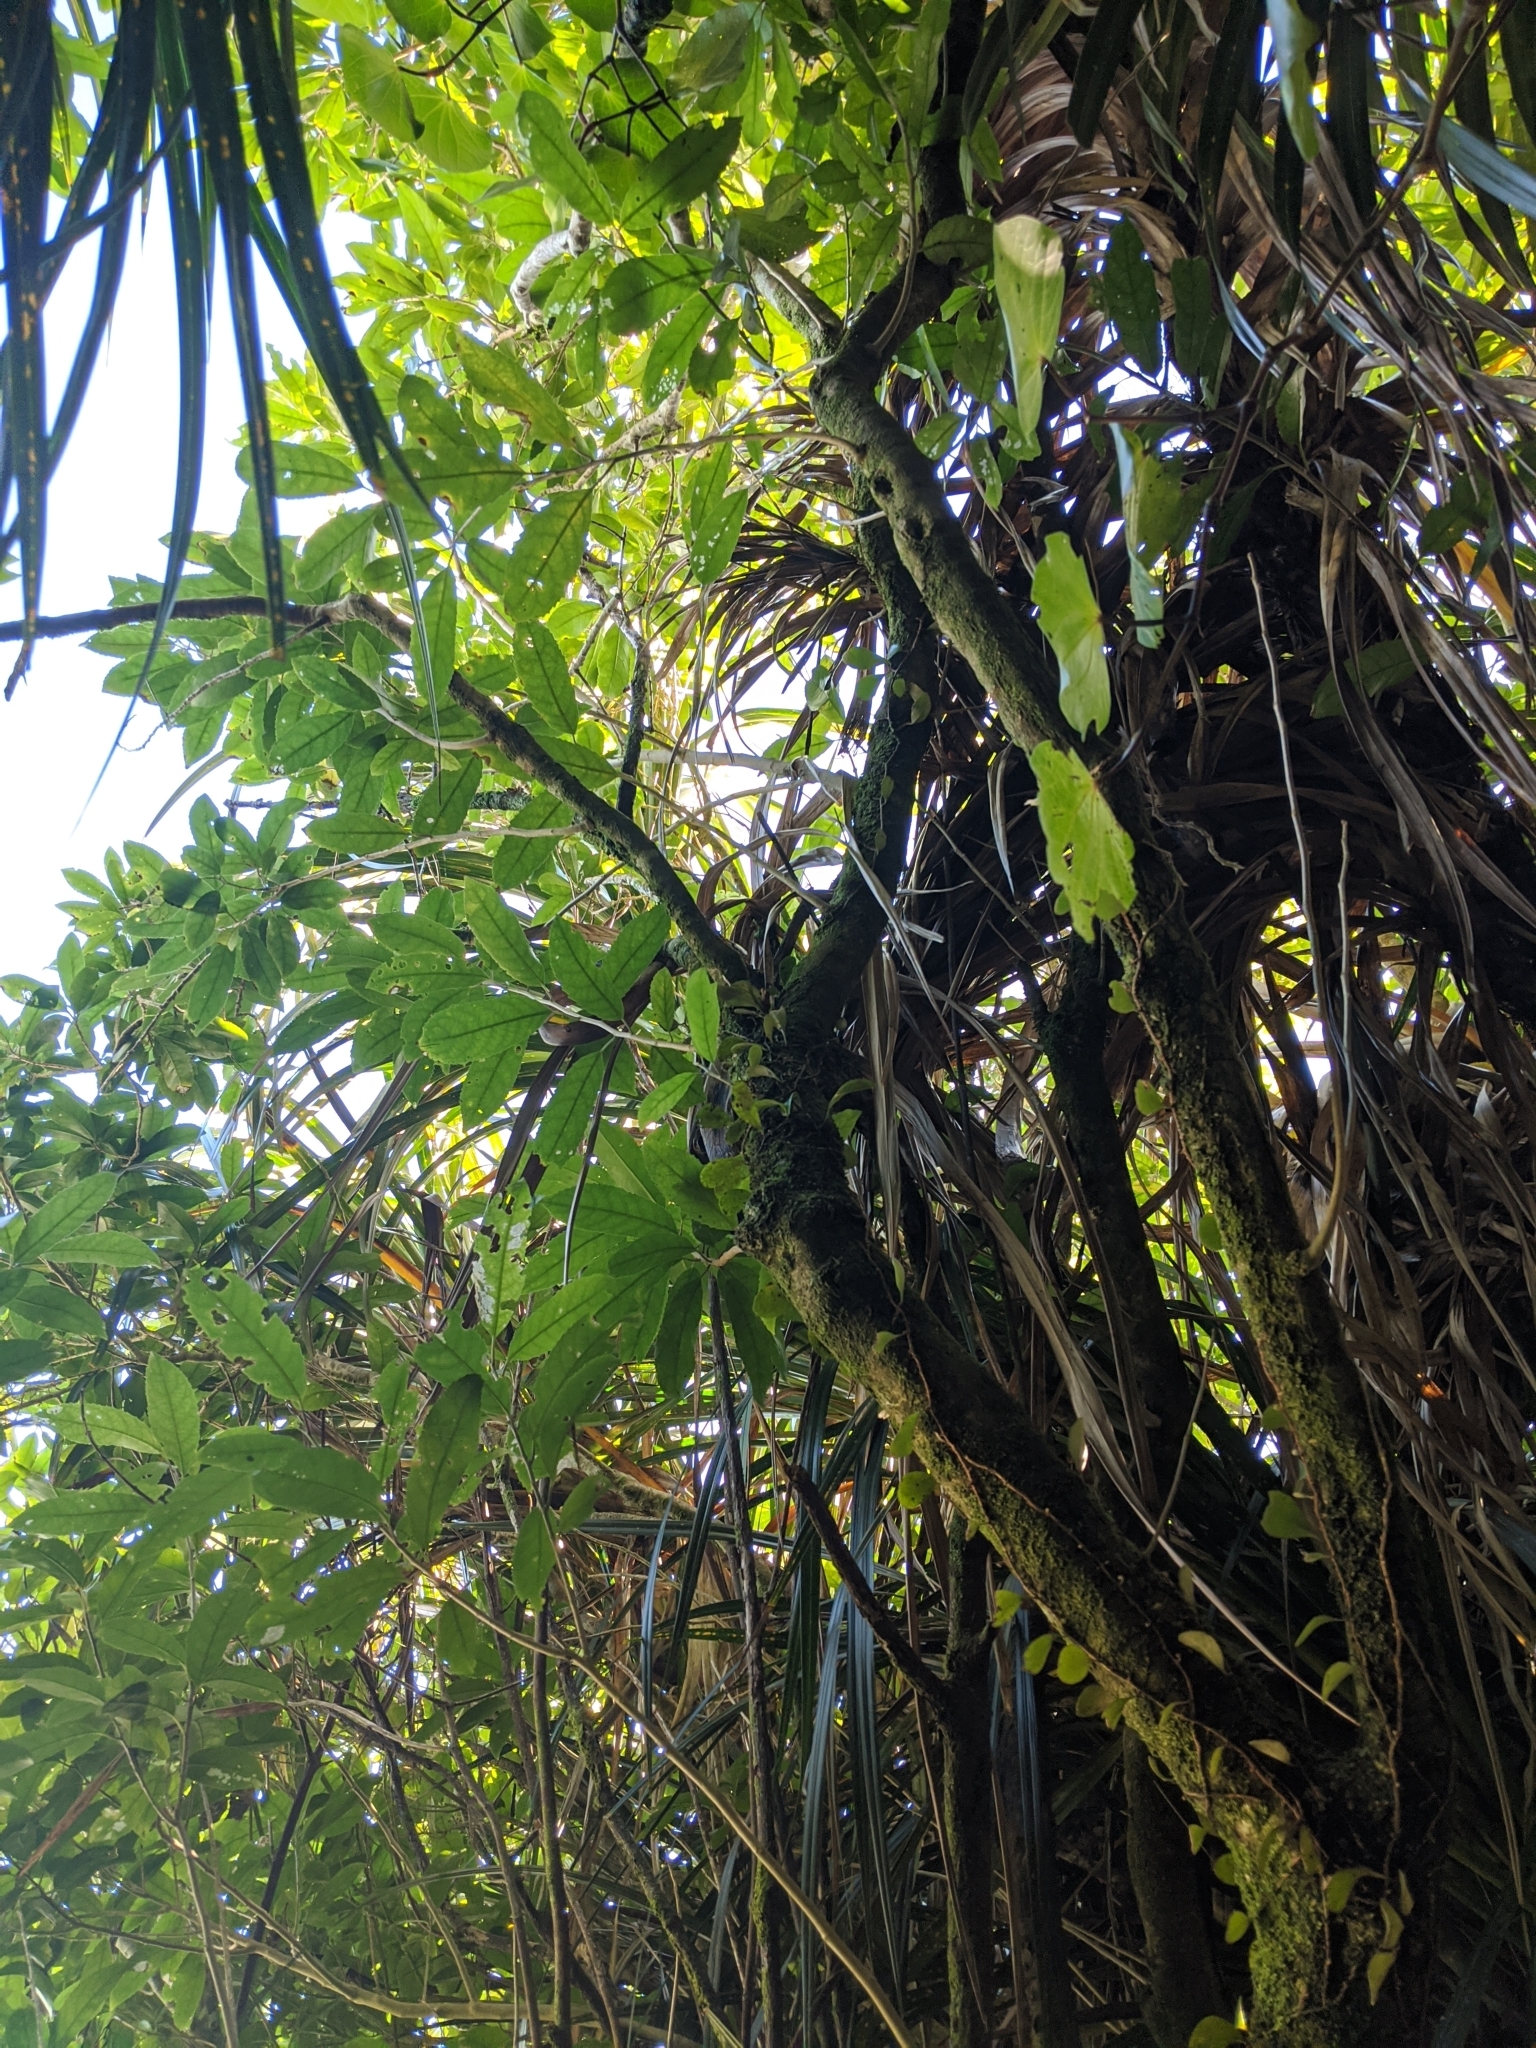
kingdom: Plantae
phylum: Tracheophyta
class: Magnoliopsida
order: Malpighiales
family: Violaceae
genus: Melicytus
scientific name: Melicytus ramiflorus
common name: Mahoe
